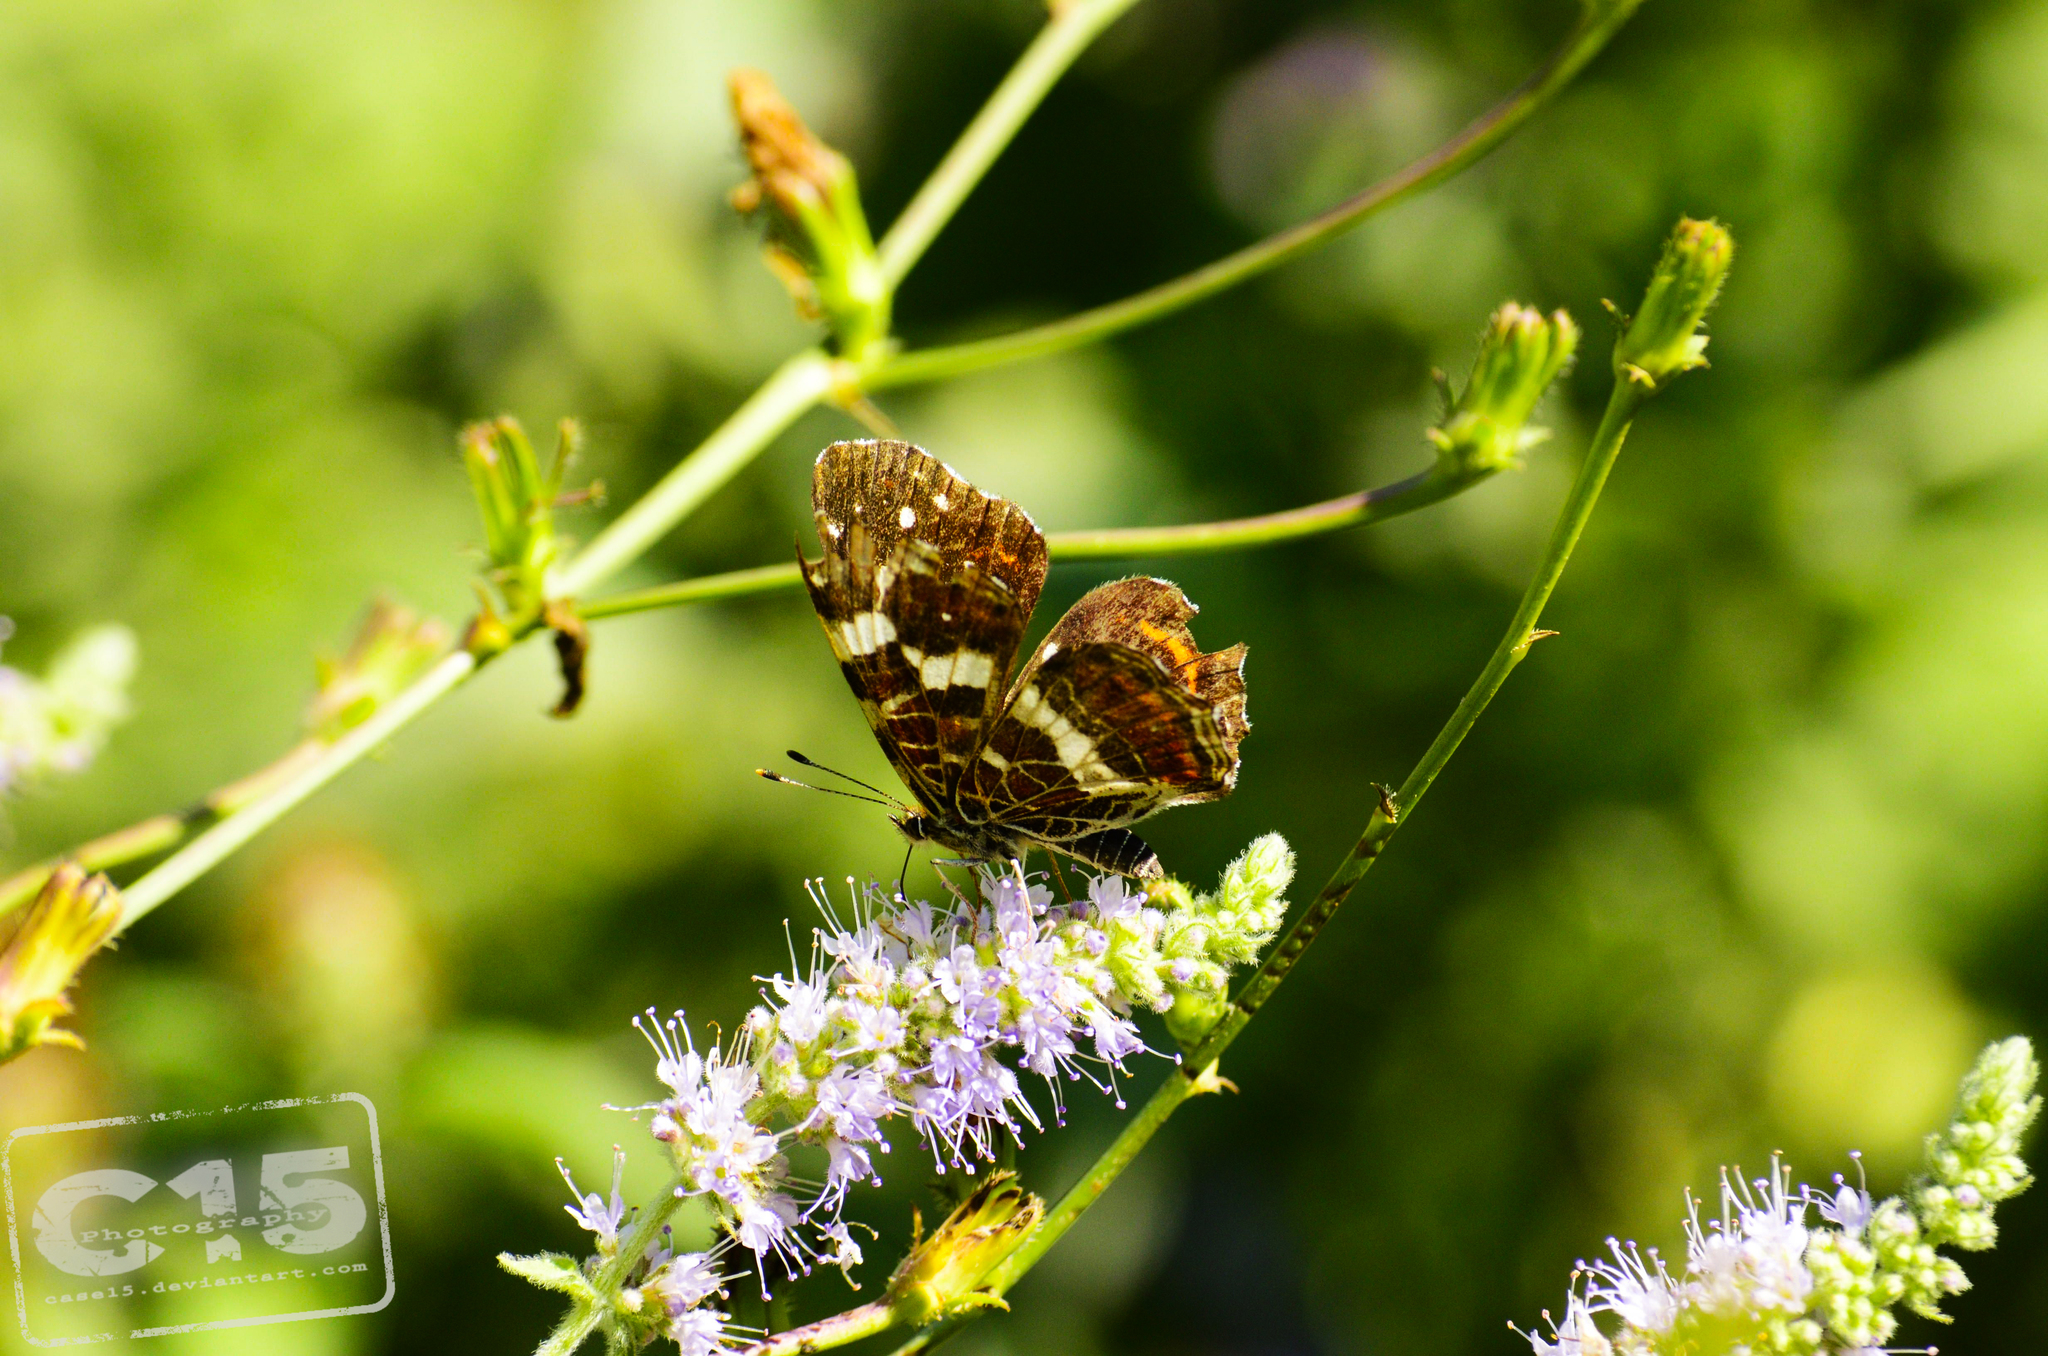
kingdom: Animalia
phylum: Arthropoda
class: Insecta
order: Lepidoptera
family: Nymphalidae
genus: Araschnia
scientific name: Araschnia levana
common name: Map butterfly
